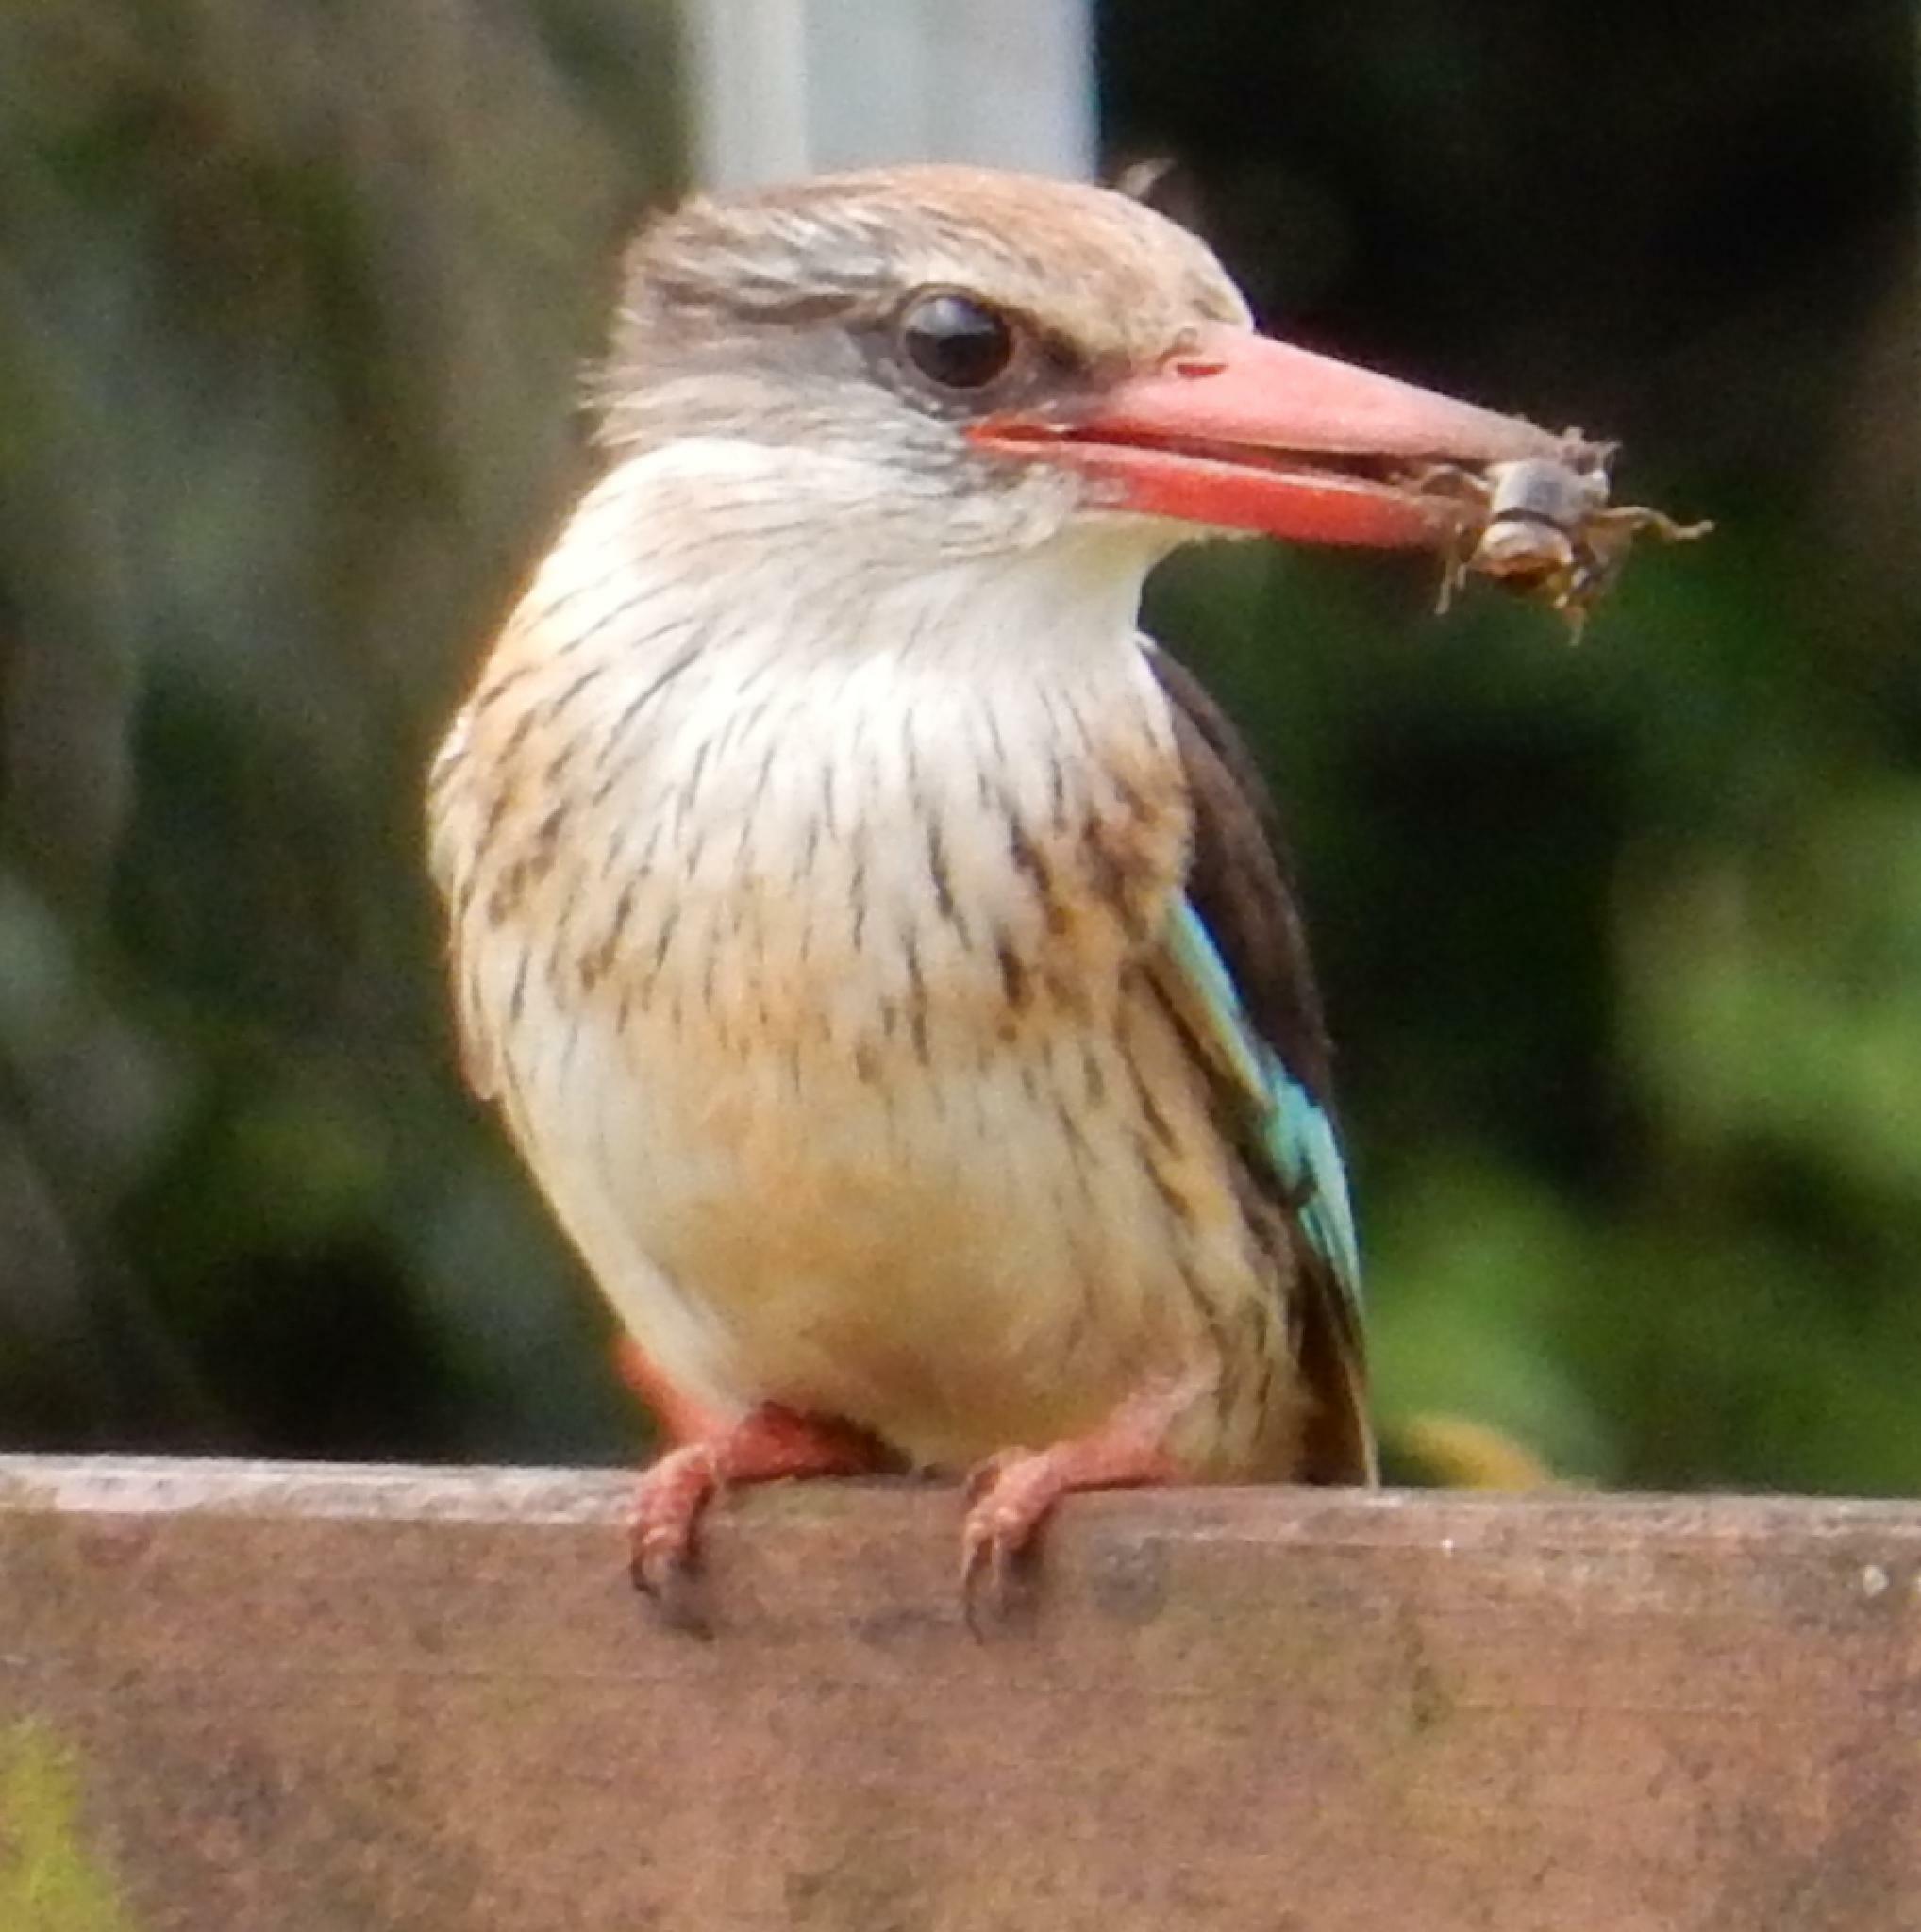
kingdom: Animalia
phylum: Chordata
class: Aves
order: Coraciiformes
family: Alcedinidae
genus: Halcyon
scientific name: Halcyon albiventris
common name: Brown-hooded kingfisher
